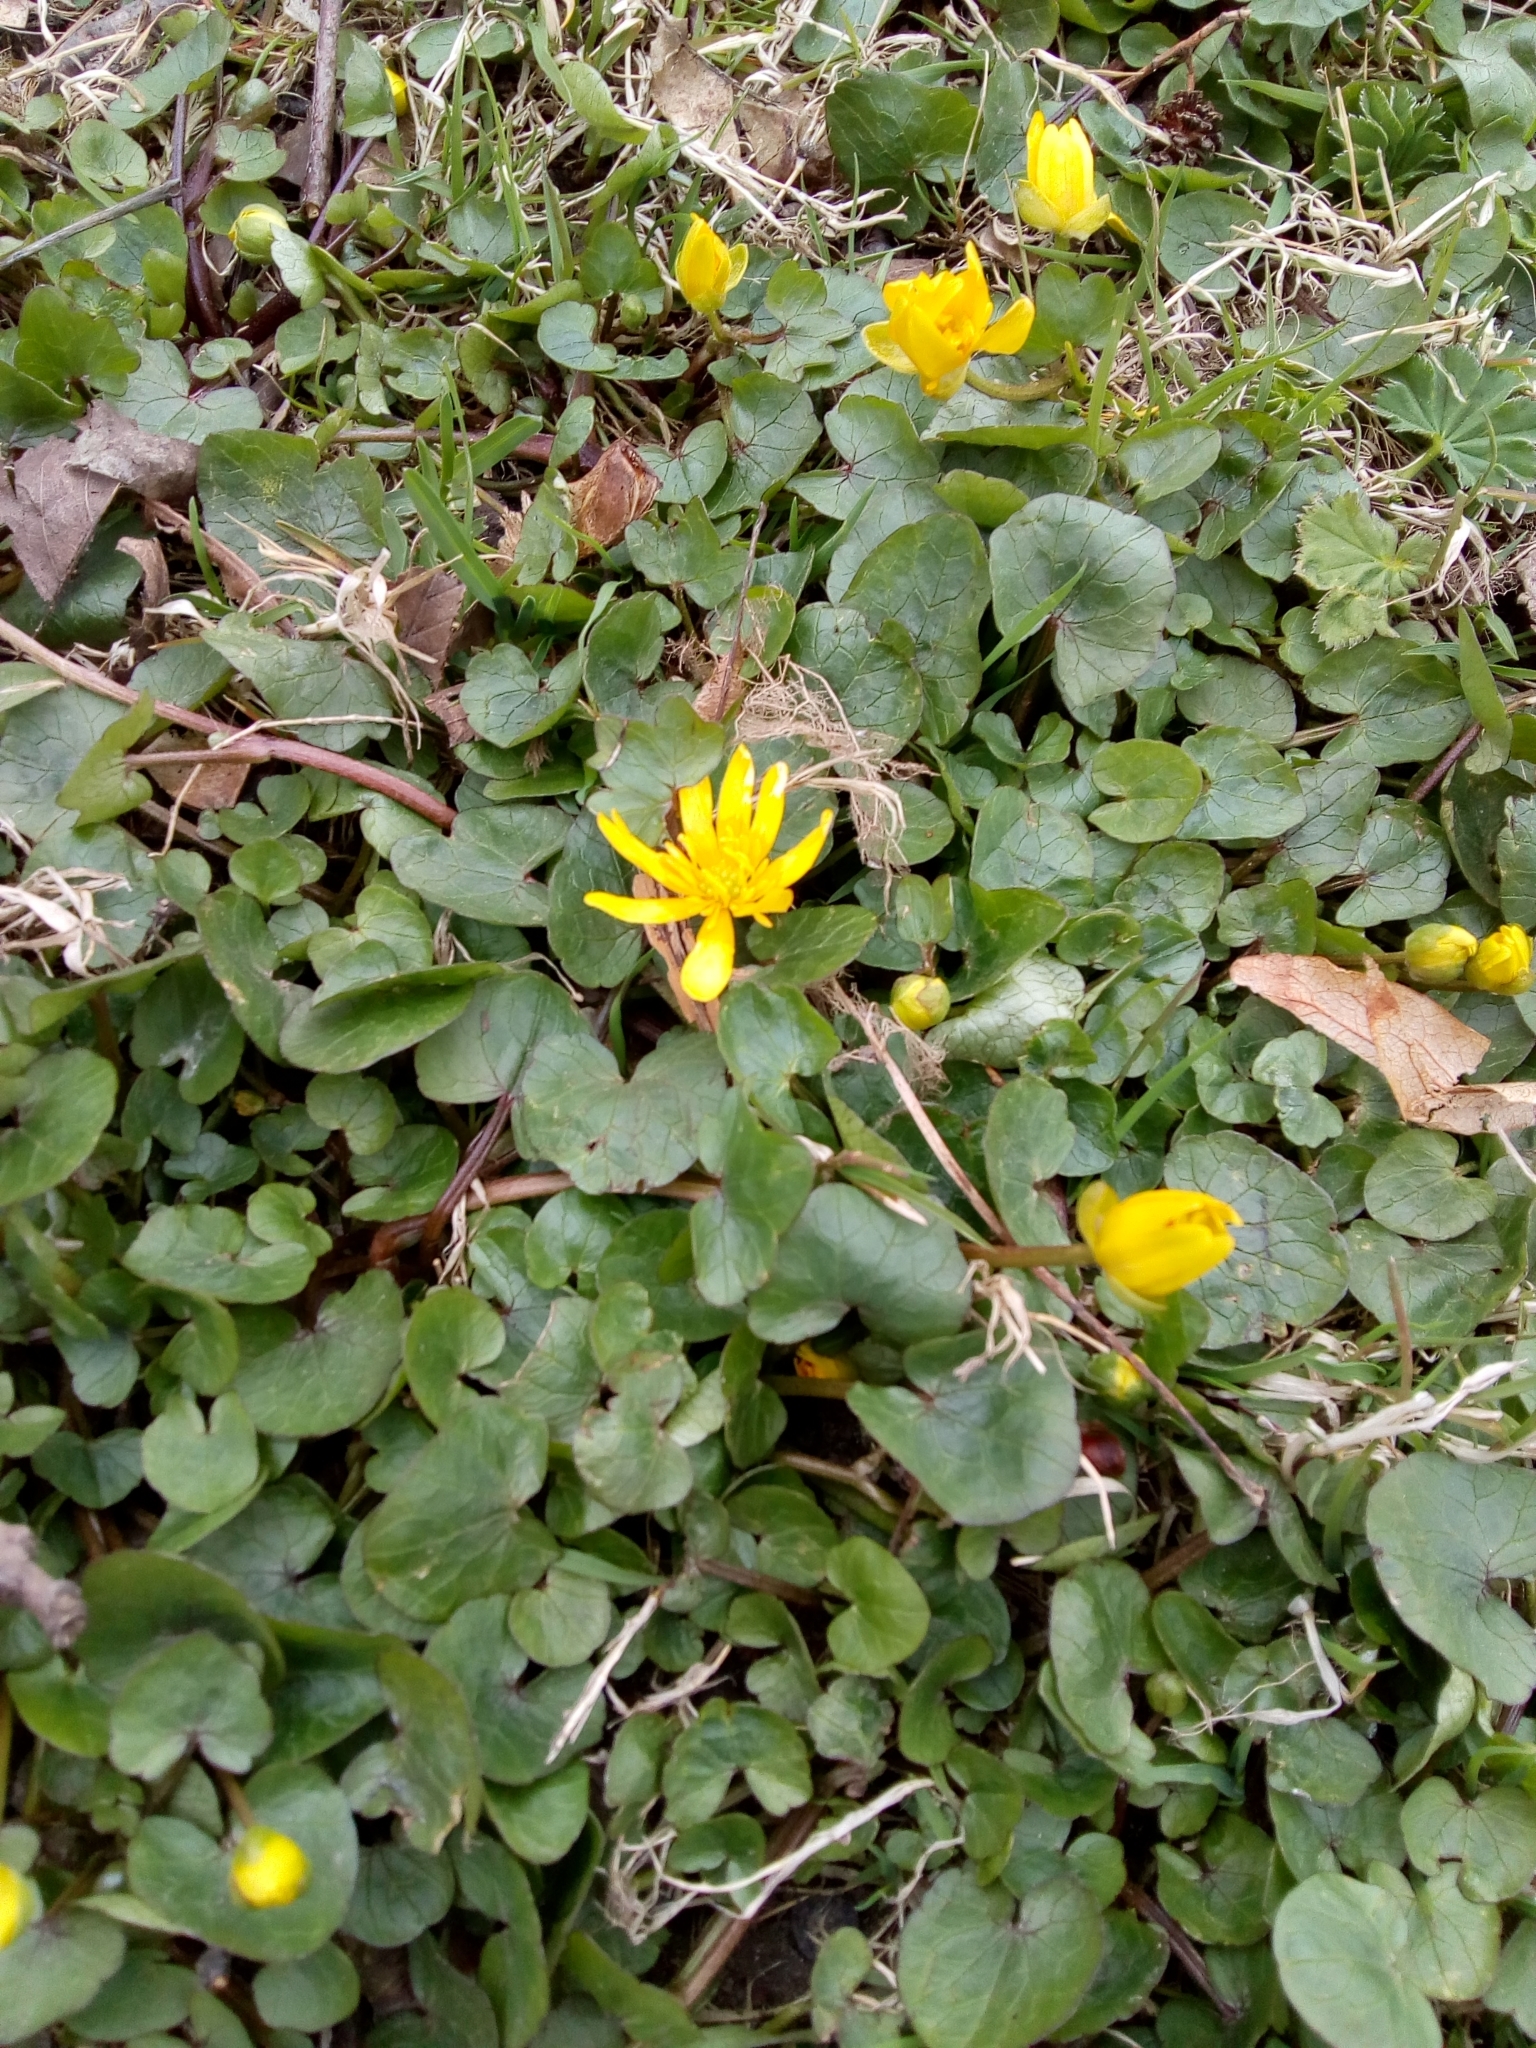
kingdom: Plantae
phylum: Tracheophyta
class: Magnoliopsida
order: Ranunculales
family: Ranunculaceae
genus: Ficaria
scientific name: Ficaria verna
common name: Lesser celandine
